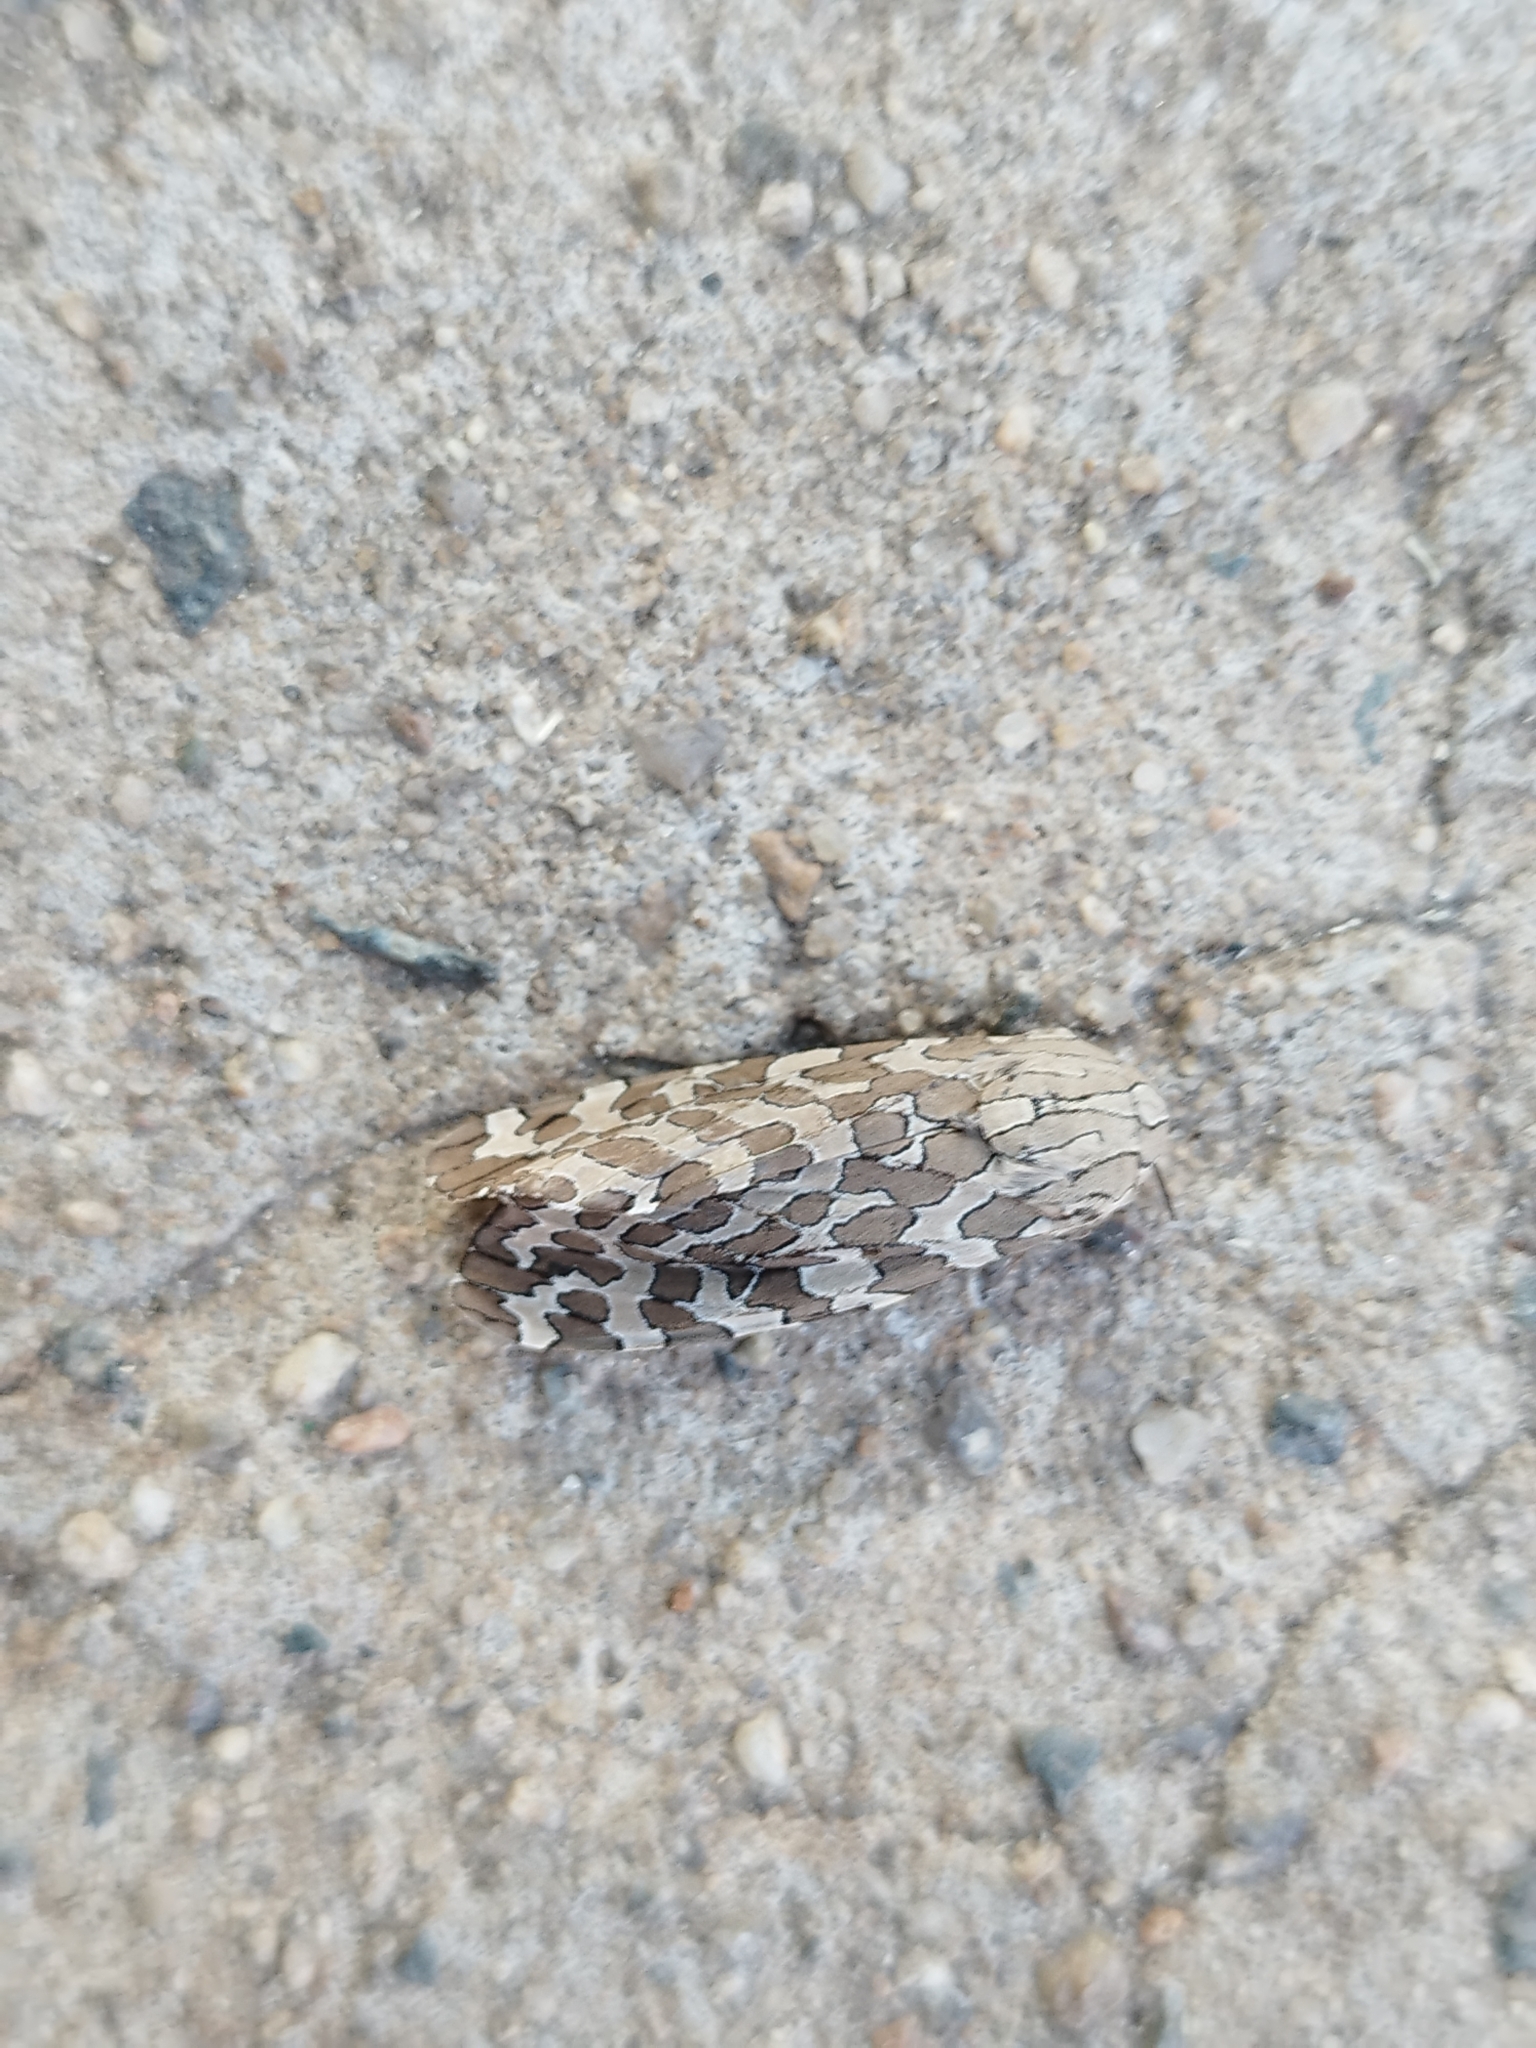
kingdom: Animalia
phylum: Arthropoda
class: Insecta
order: Lepidoptera
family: Erebidae
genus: Hypercompe
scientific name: Hypercompe indecisa
